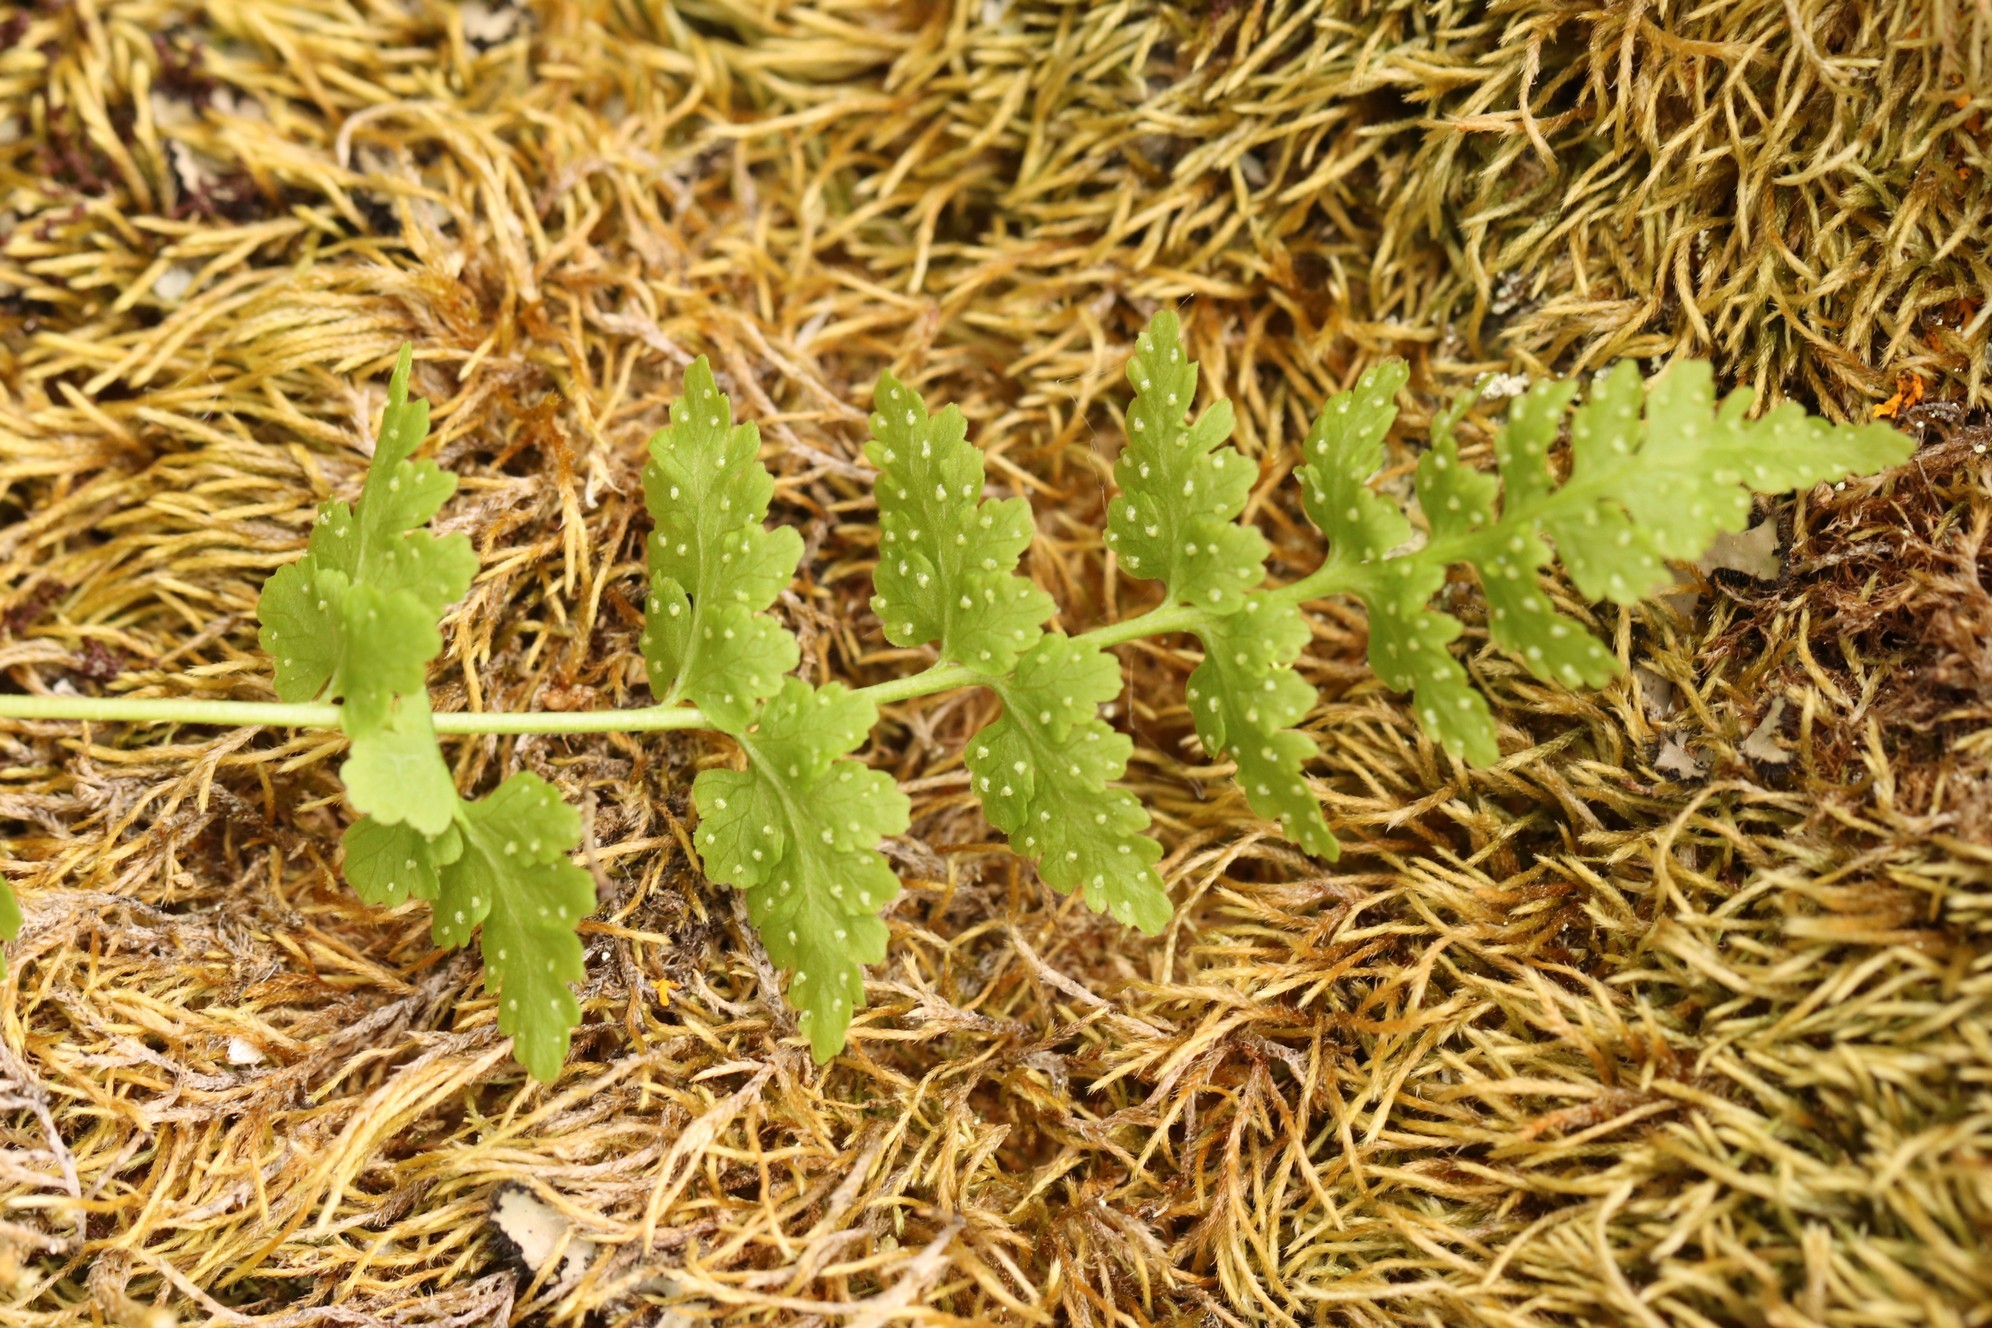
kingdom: Plantae
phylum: Tracheophyta
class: Polypodiopsida
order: Polypodiales
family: Cystopteridaceae
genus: Cystopteris
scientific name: Cystopteris fragilis
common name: Brittle bladder fern
